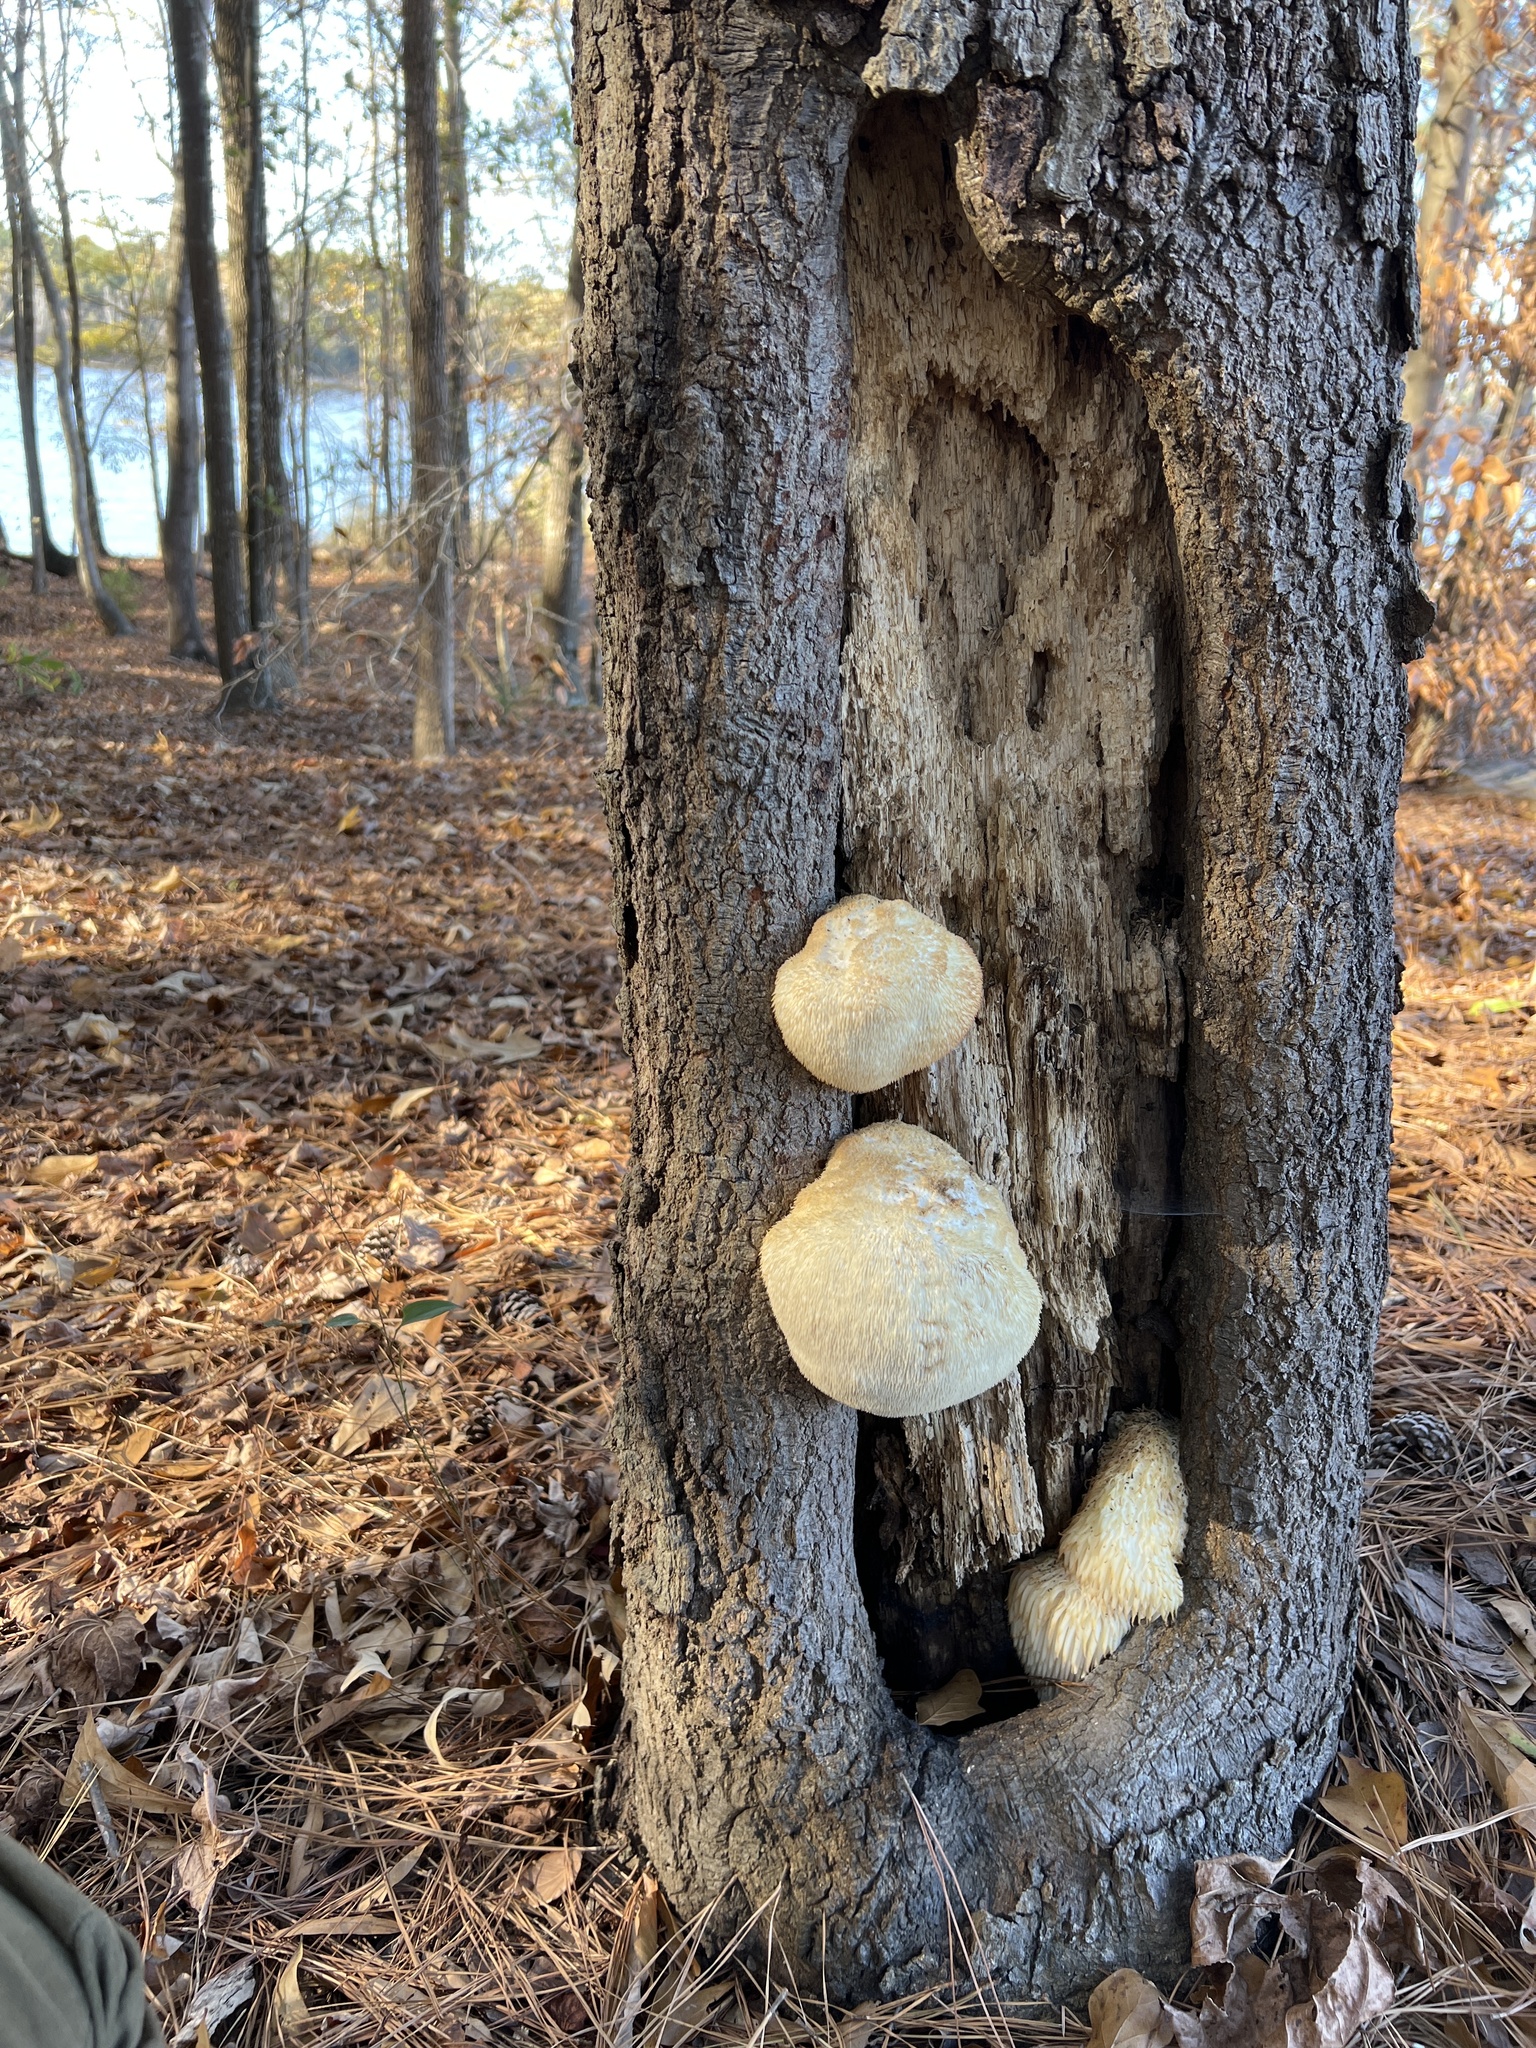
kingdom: Fungi
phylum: Basidiomycota
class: Agaricomycetes
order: Russulales
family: Hericiaceae
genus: Hericium
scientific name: Hericium erinaceus
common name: Bearded tooth
